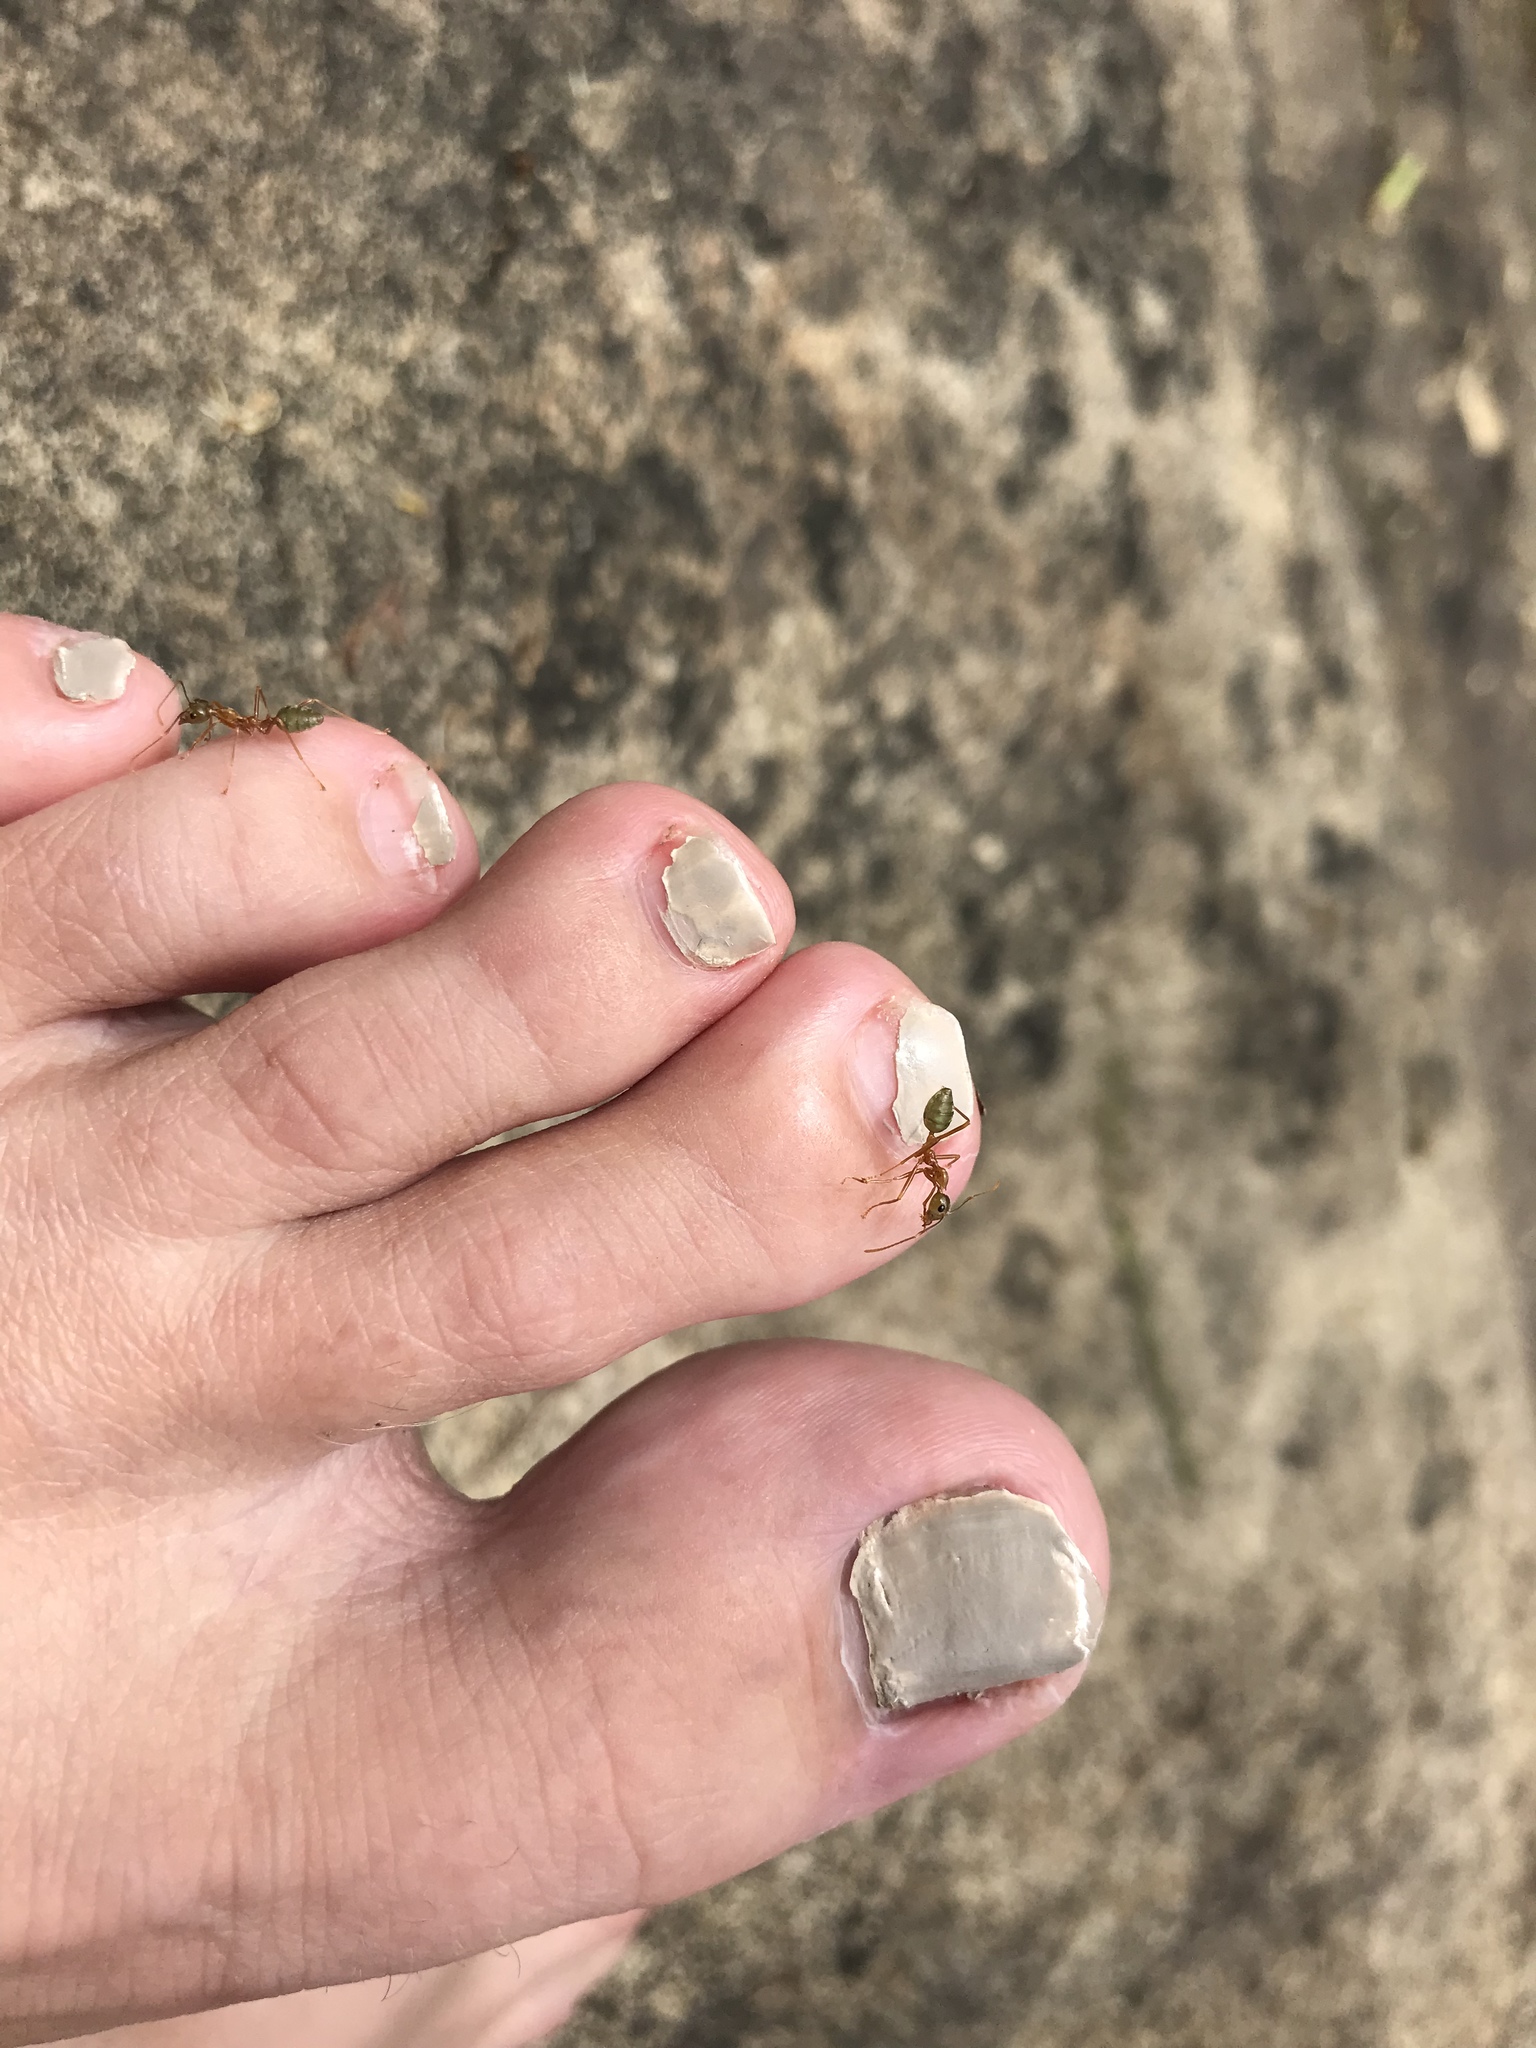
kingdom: Animalia
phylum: Arthropoda
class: Insecta
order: Hymenoptera
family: Formicidae
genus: Oecophylla
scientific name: Oecophylla smaragdina
